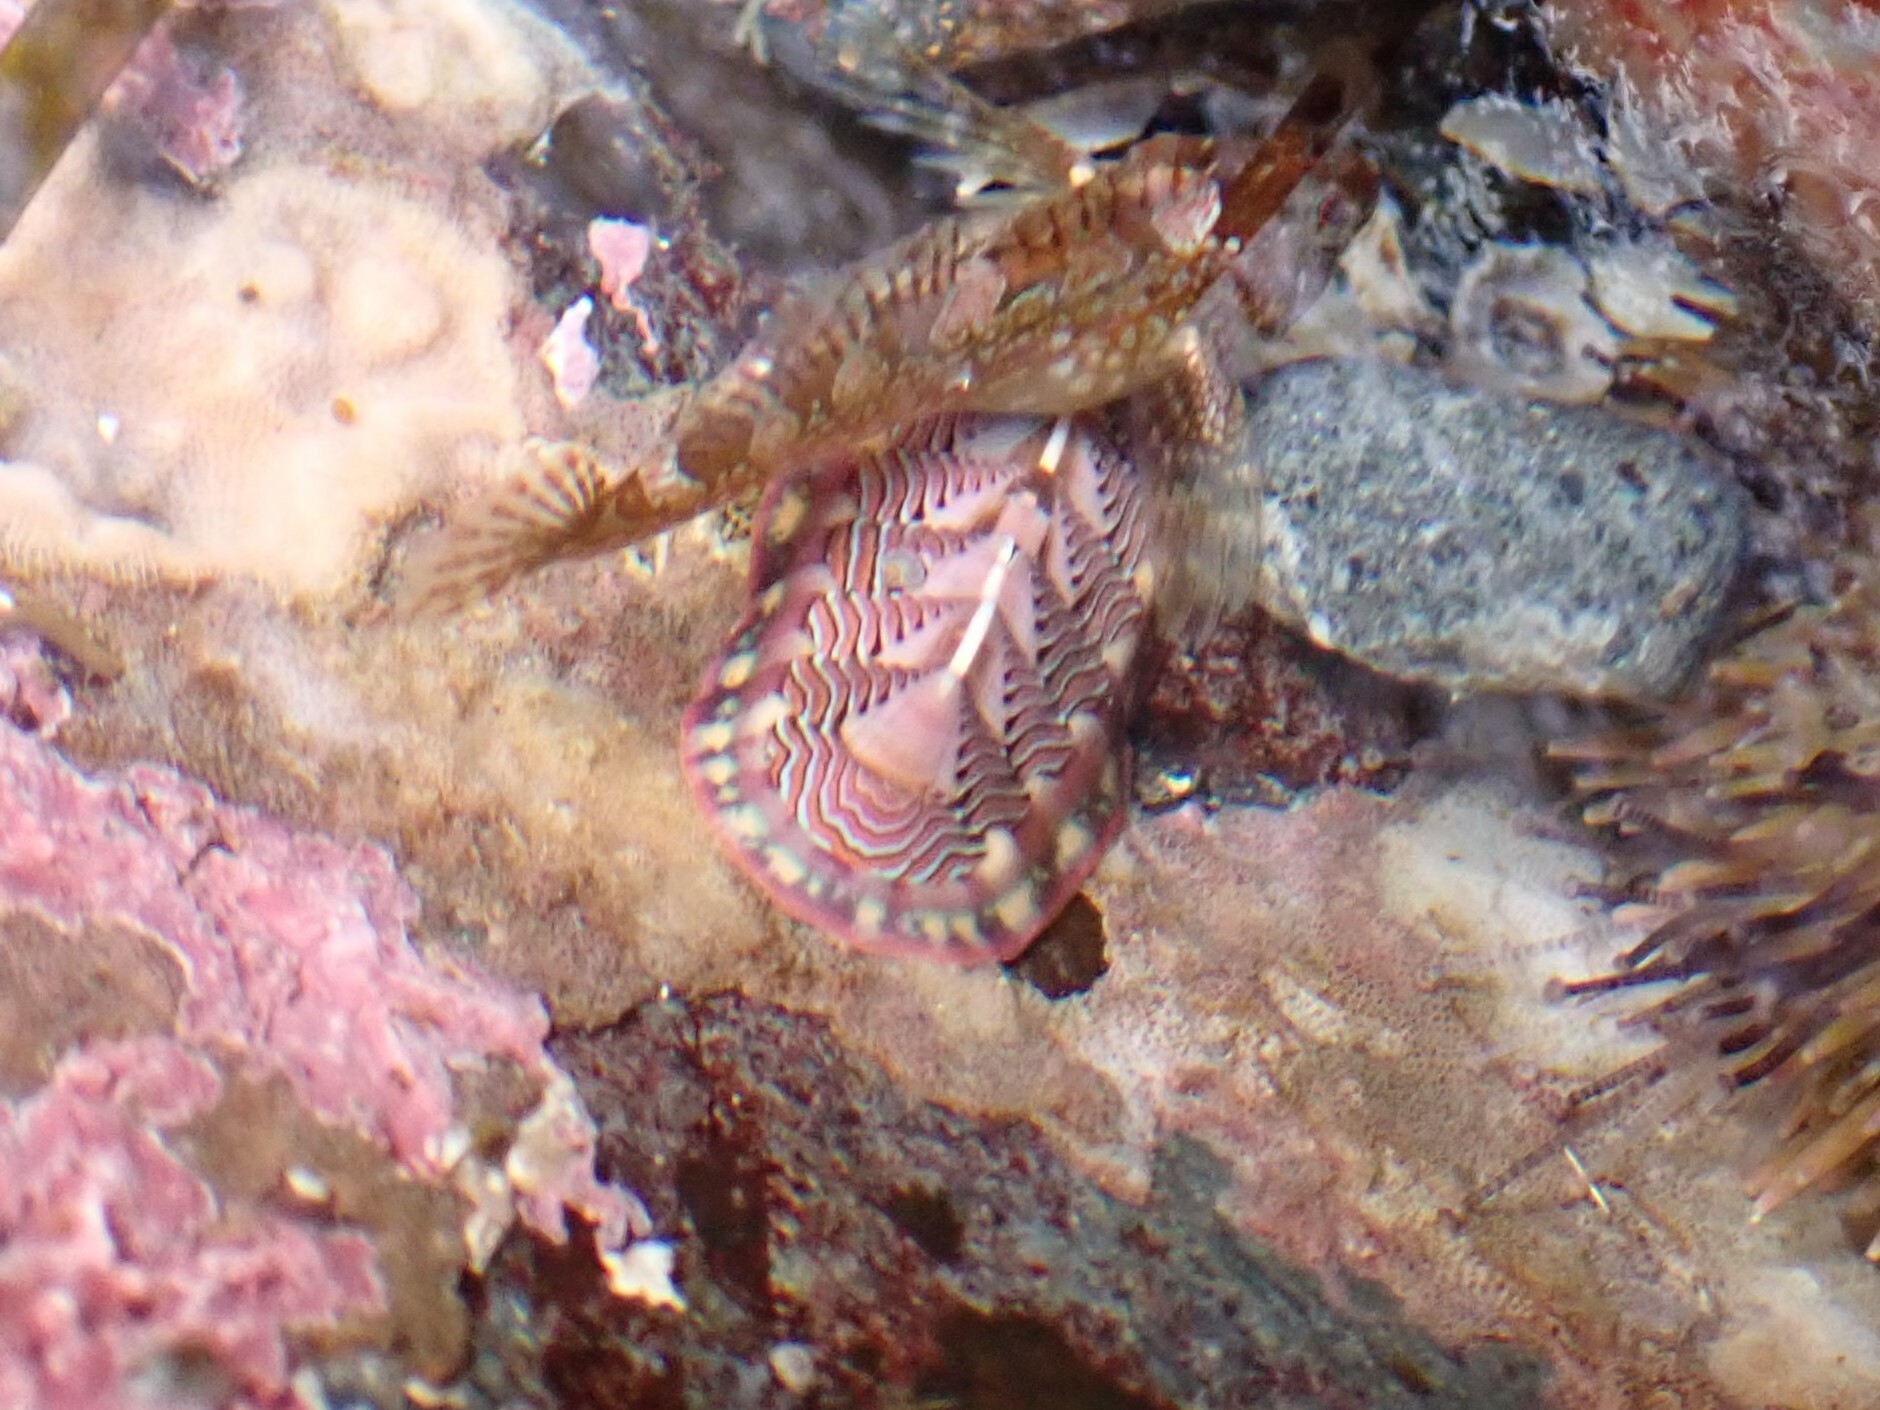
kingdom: Animalia
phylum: Mollusca
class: Polyplacophora
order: Chitonida
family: Tonicellidae
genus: Tonicella
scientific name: Tonicella lineata
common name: Lined chiton
